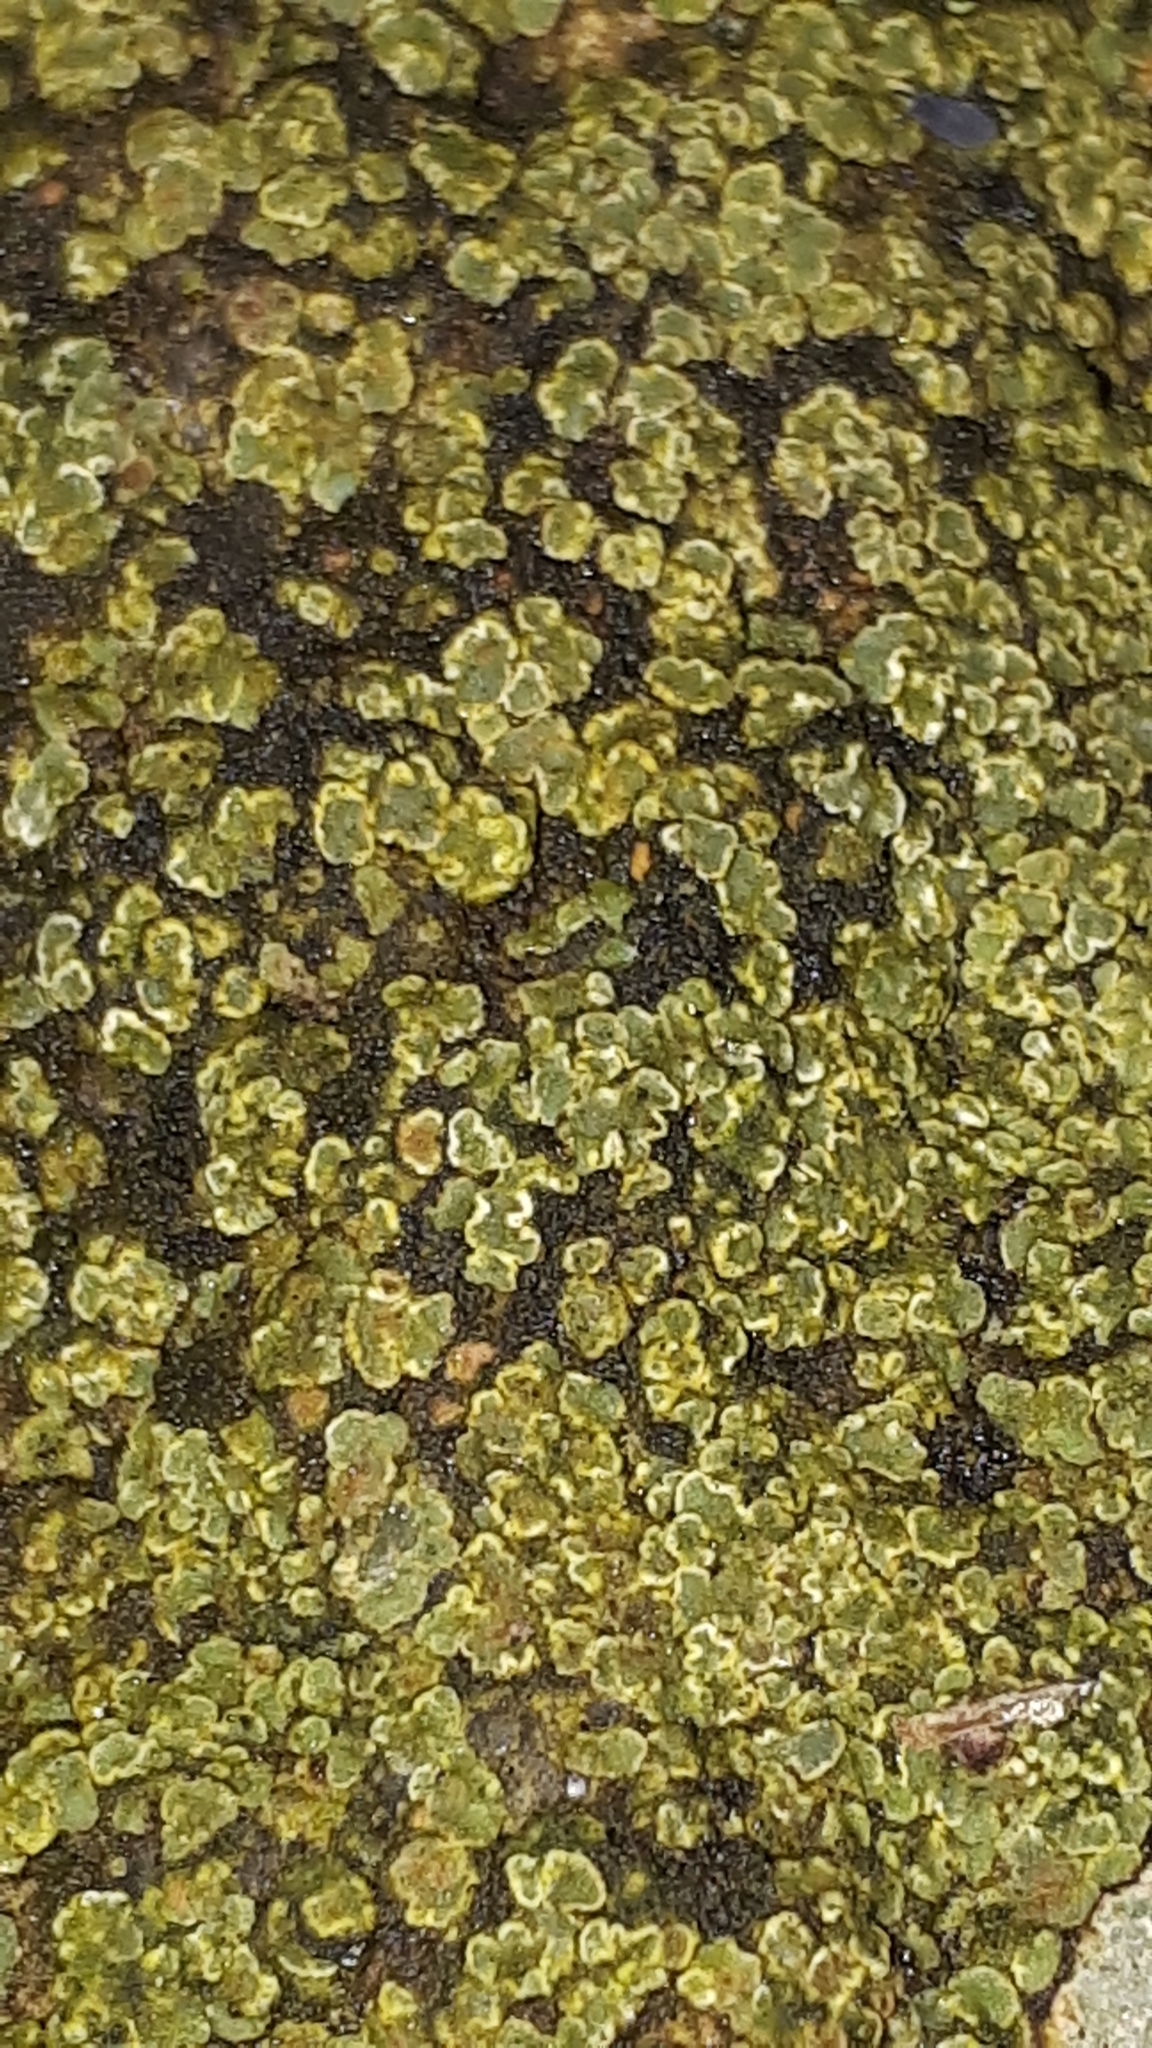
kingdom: Fungi
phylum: Ascomycota
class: Lecanoromycetes
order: Lecanorales
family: Lecanoraceae
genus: Protoparmeliopsis
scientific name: Protoparmeliopsis muralis
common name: Stonewall rim lichen
